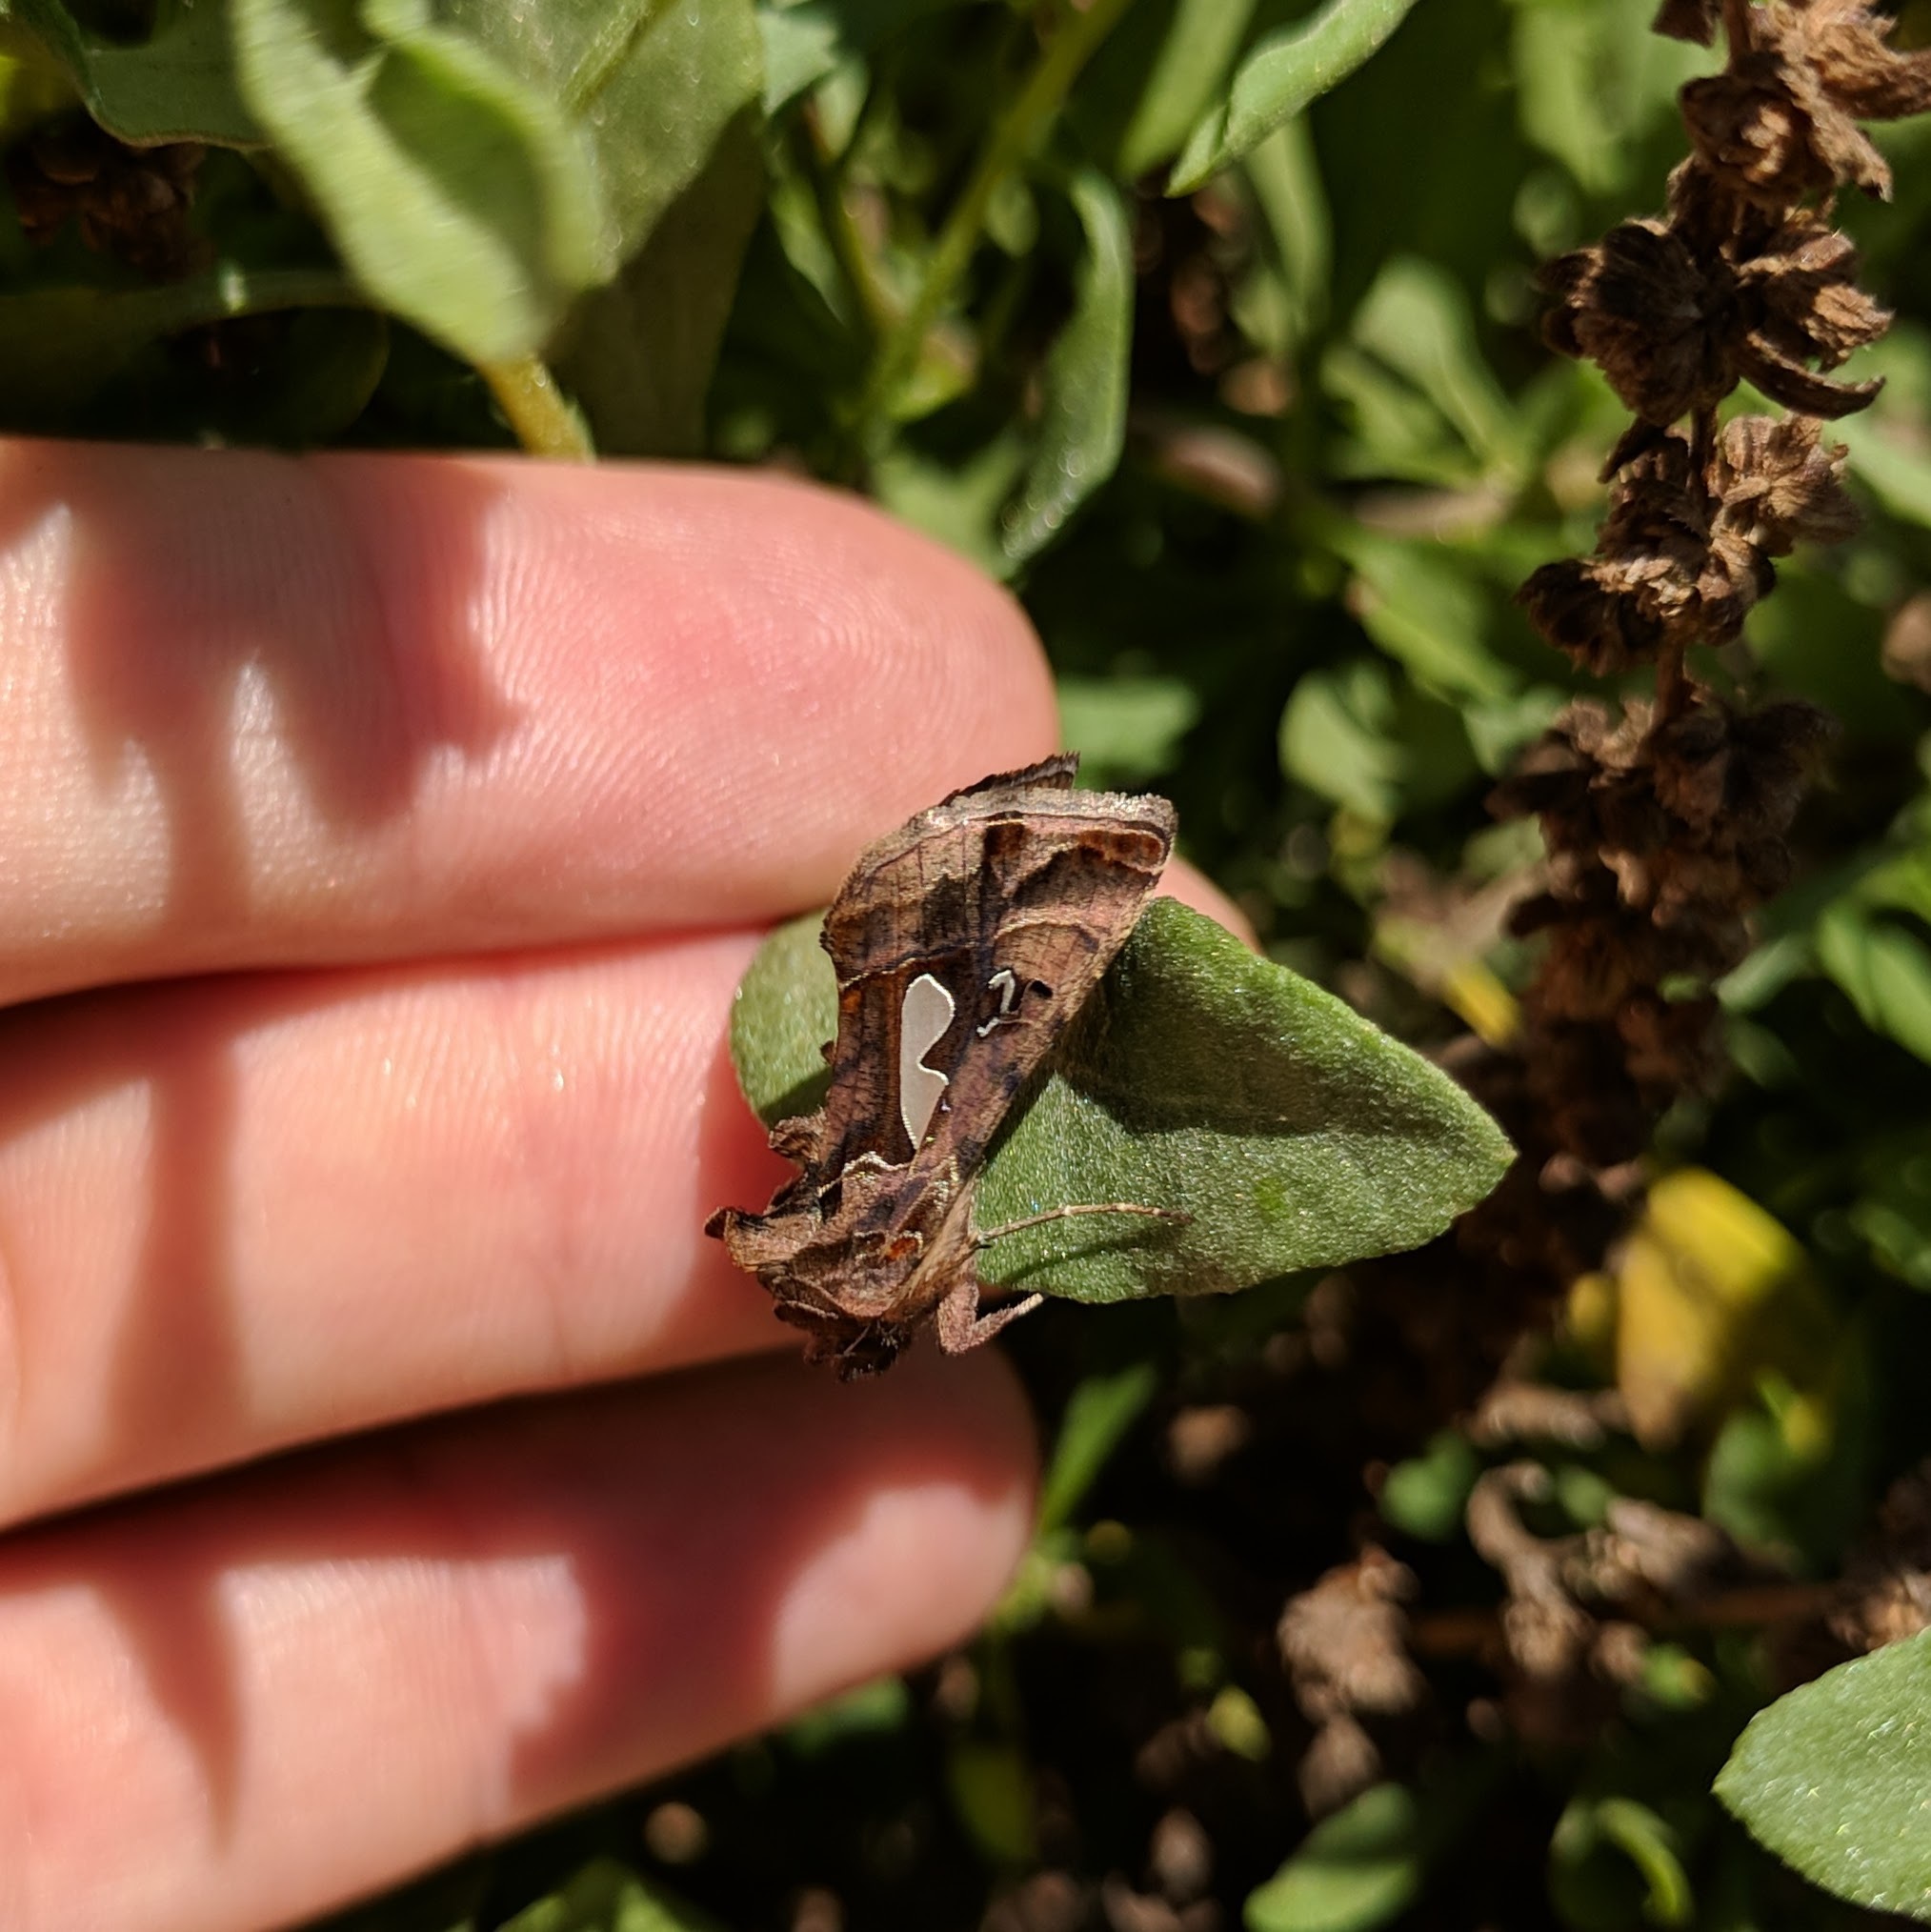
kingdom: Animalia
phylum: Arthropoda
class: Insecta
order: Lepidoptera
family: Noctuidae
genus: Megalographa
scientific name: Megalographa biloba
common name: Cutworm
